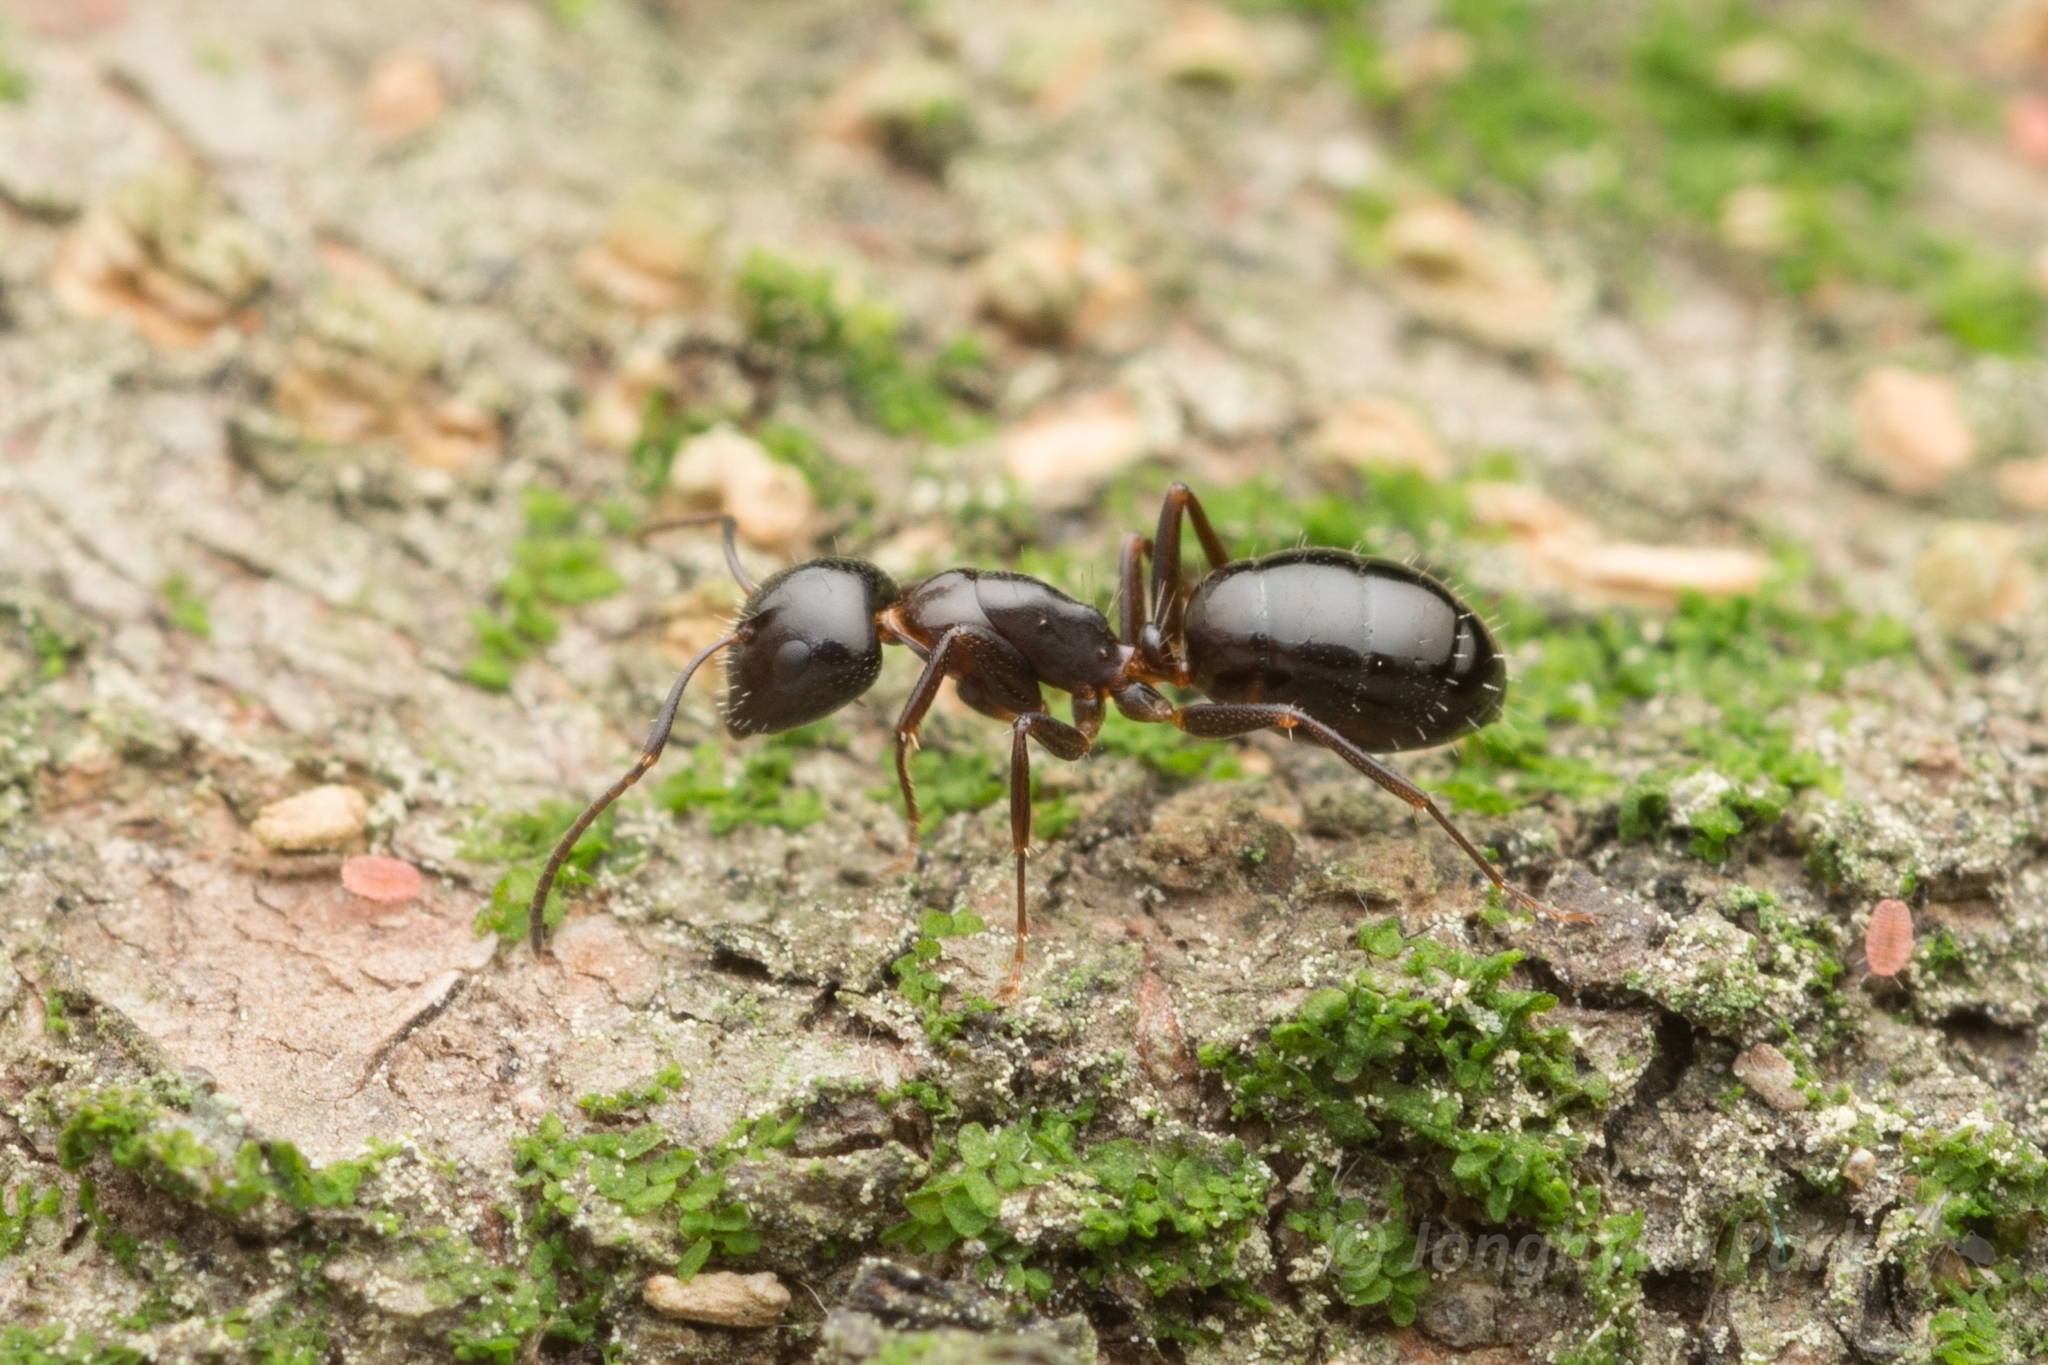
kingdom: Animalia
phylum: Arthropoda
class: Insecta
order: Hymenoptera
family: Formicidae
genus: Camponotus
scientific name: Camponotus vitiosus
